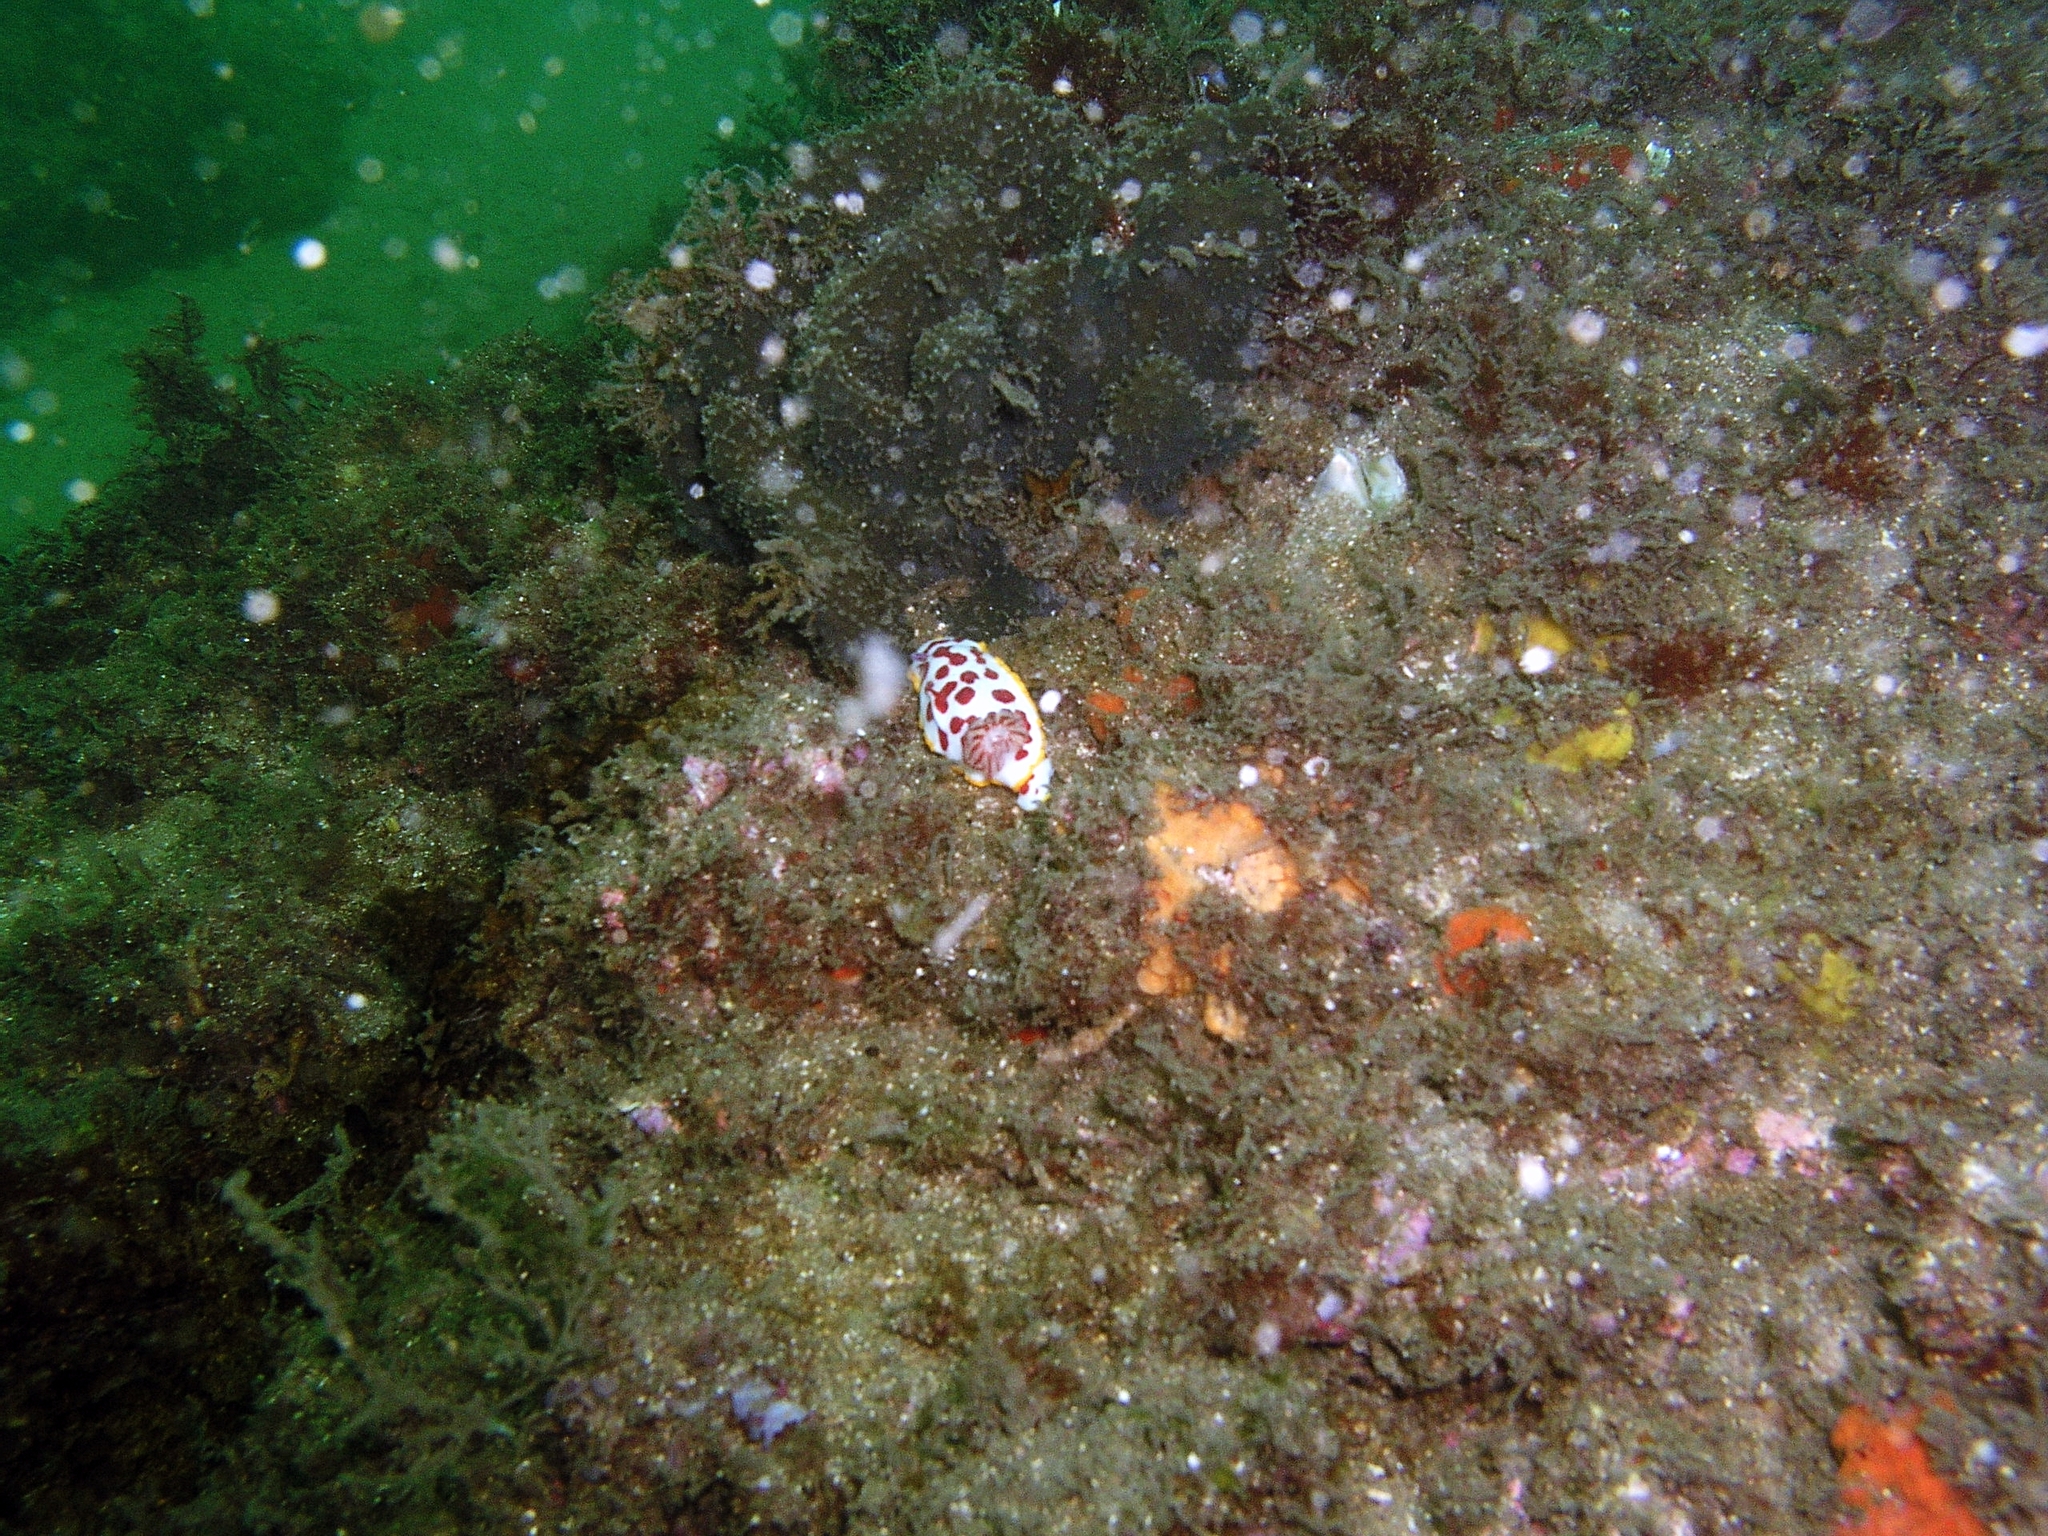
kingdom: Animalia
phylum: Mollusca
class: Gastropoda
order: Nudibranchia
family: Chromodorididae
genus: Goniobranchus
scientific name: Goniobranchus splendidus
